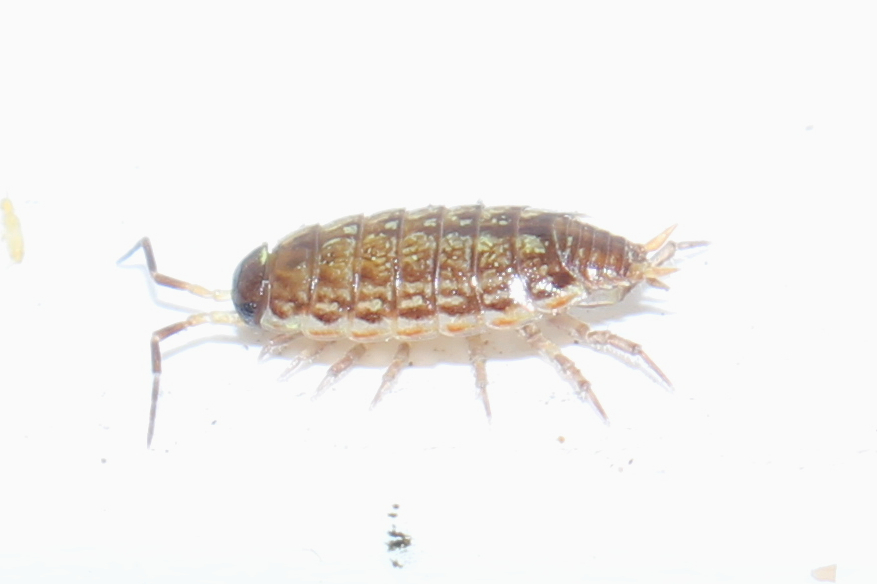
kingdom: Animalia
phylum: Arthropoda
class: Malacostraca
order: Isopoda
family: Philosciidae
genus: Philoscia
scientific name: Philoscia muscorum
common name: Common striped woodlouse
